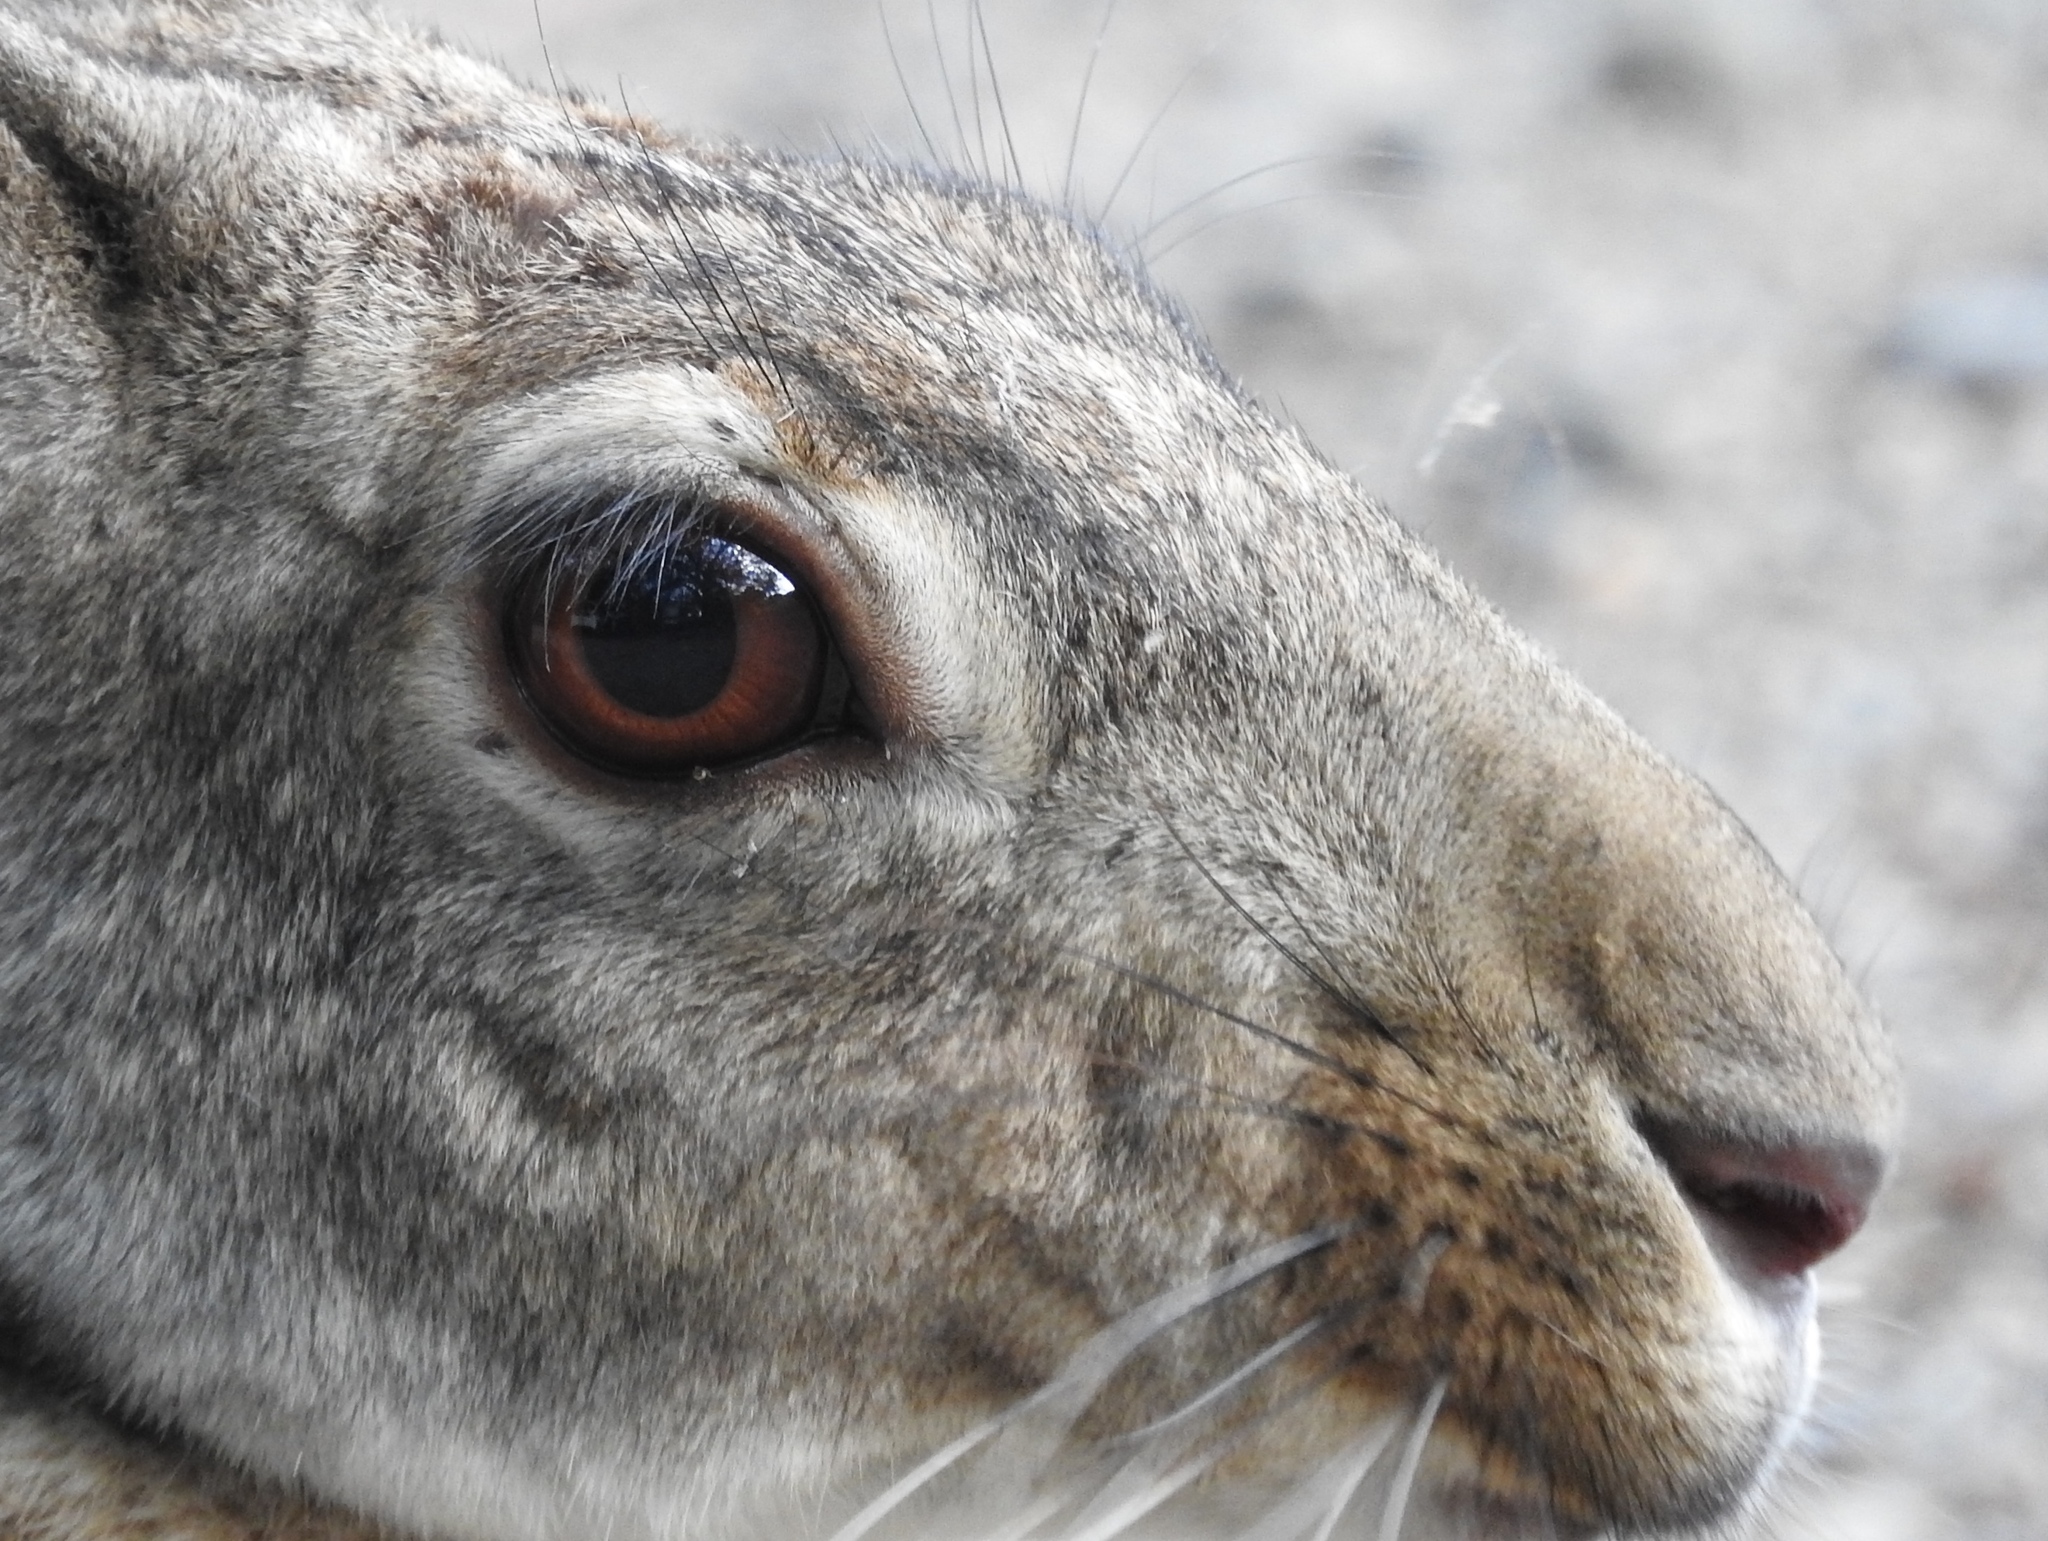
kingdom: Animalia
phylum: Chordata
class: Mammalia
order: Lagomorpha
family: Leporidae
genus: Lepus
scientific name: Lepus alleni
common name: Antelope jackrabbit
